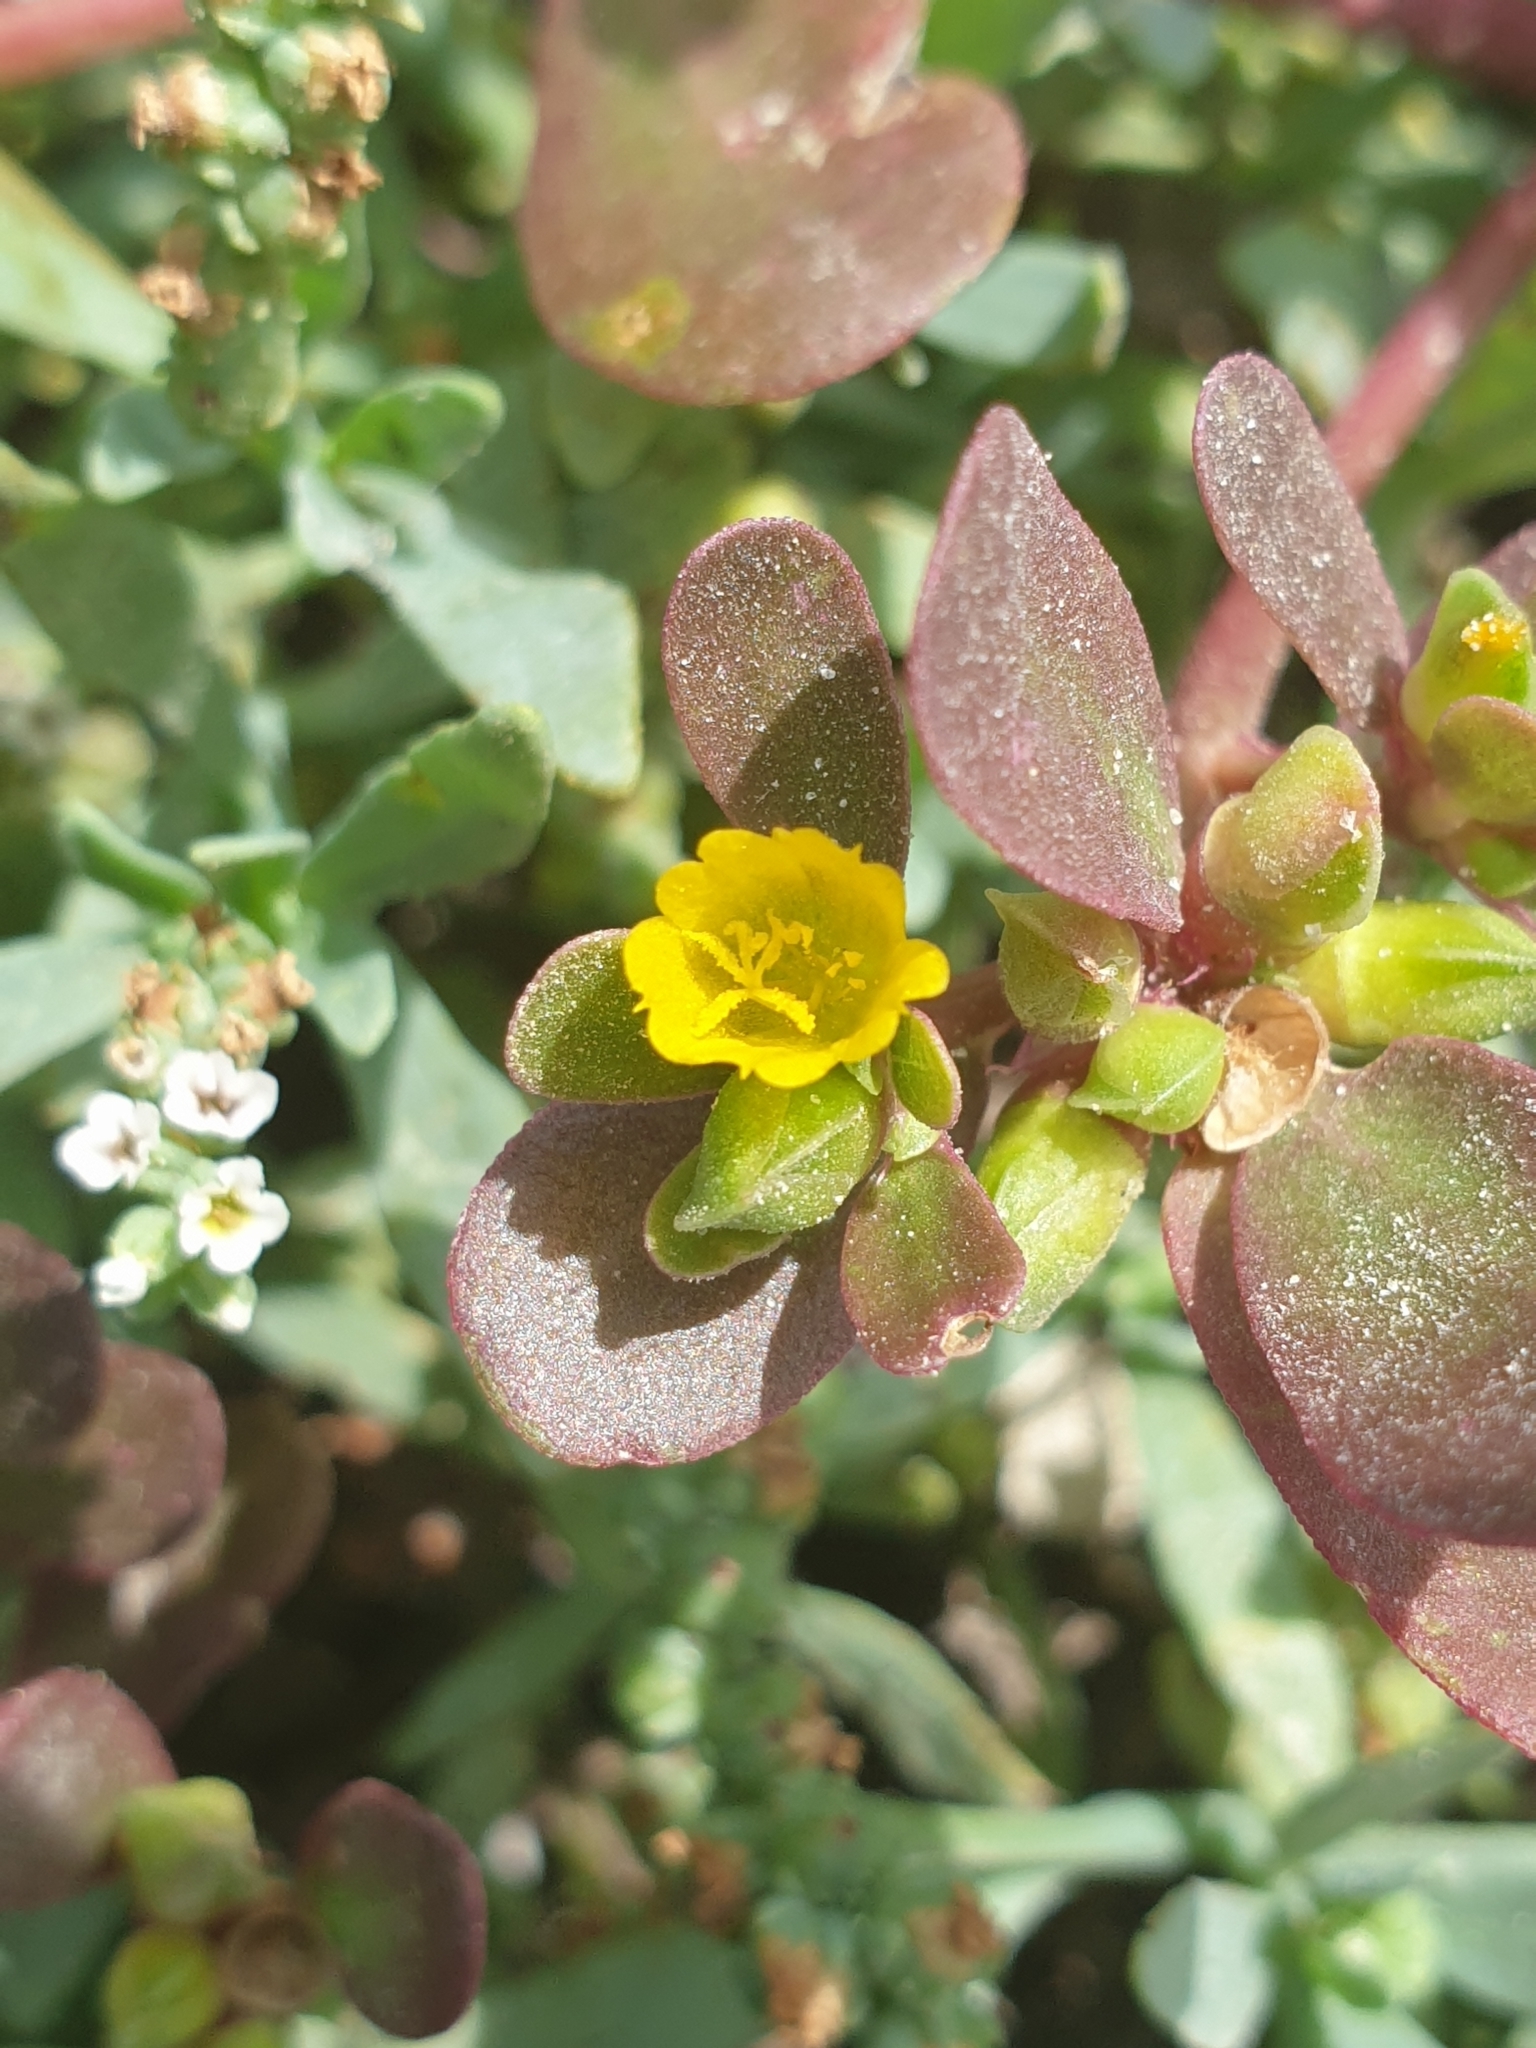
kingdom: Plantae
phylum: Tracheophyta
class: Magnoliopsida
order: Caryophyllales
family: Portulacaceae
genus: Portulaca
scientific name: Portulaca oleracea
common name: Common purslane
